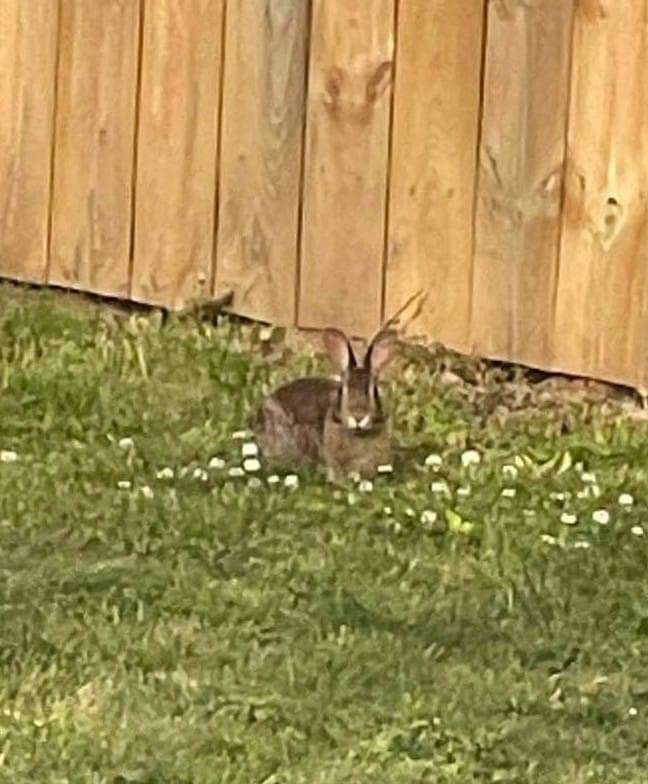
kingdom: Animalia
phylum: Chordata
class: Mammalia
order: Lagomorpha
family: Leporidae
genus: Sylvilagus
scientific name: Sylvilagus floridanus
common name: Eastern cottontail
